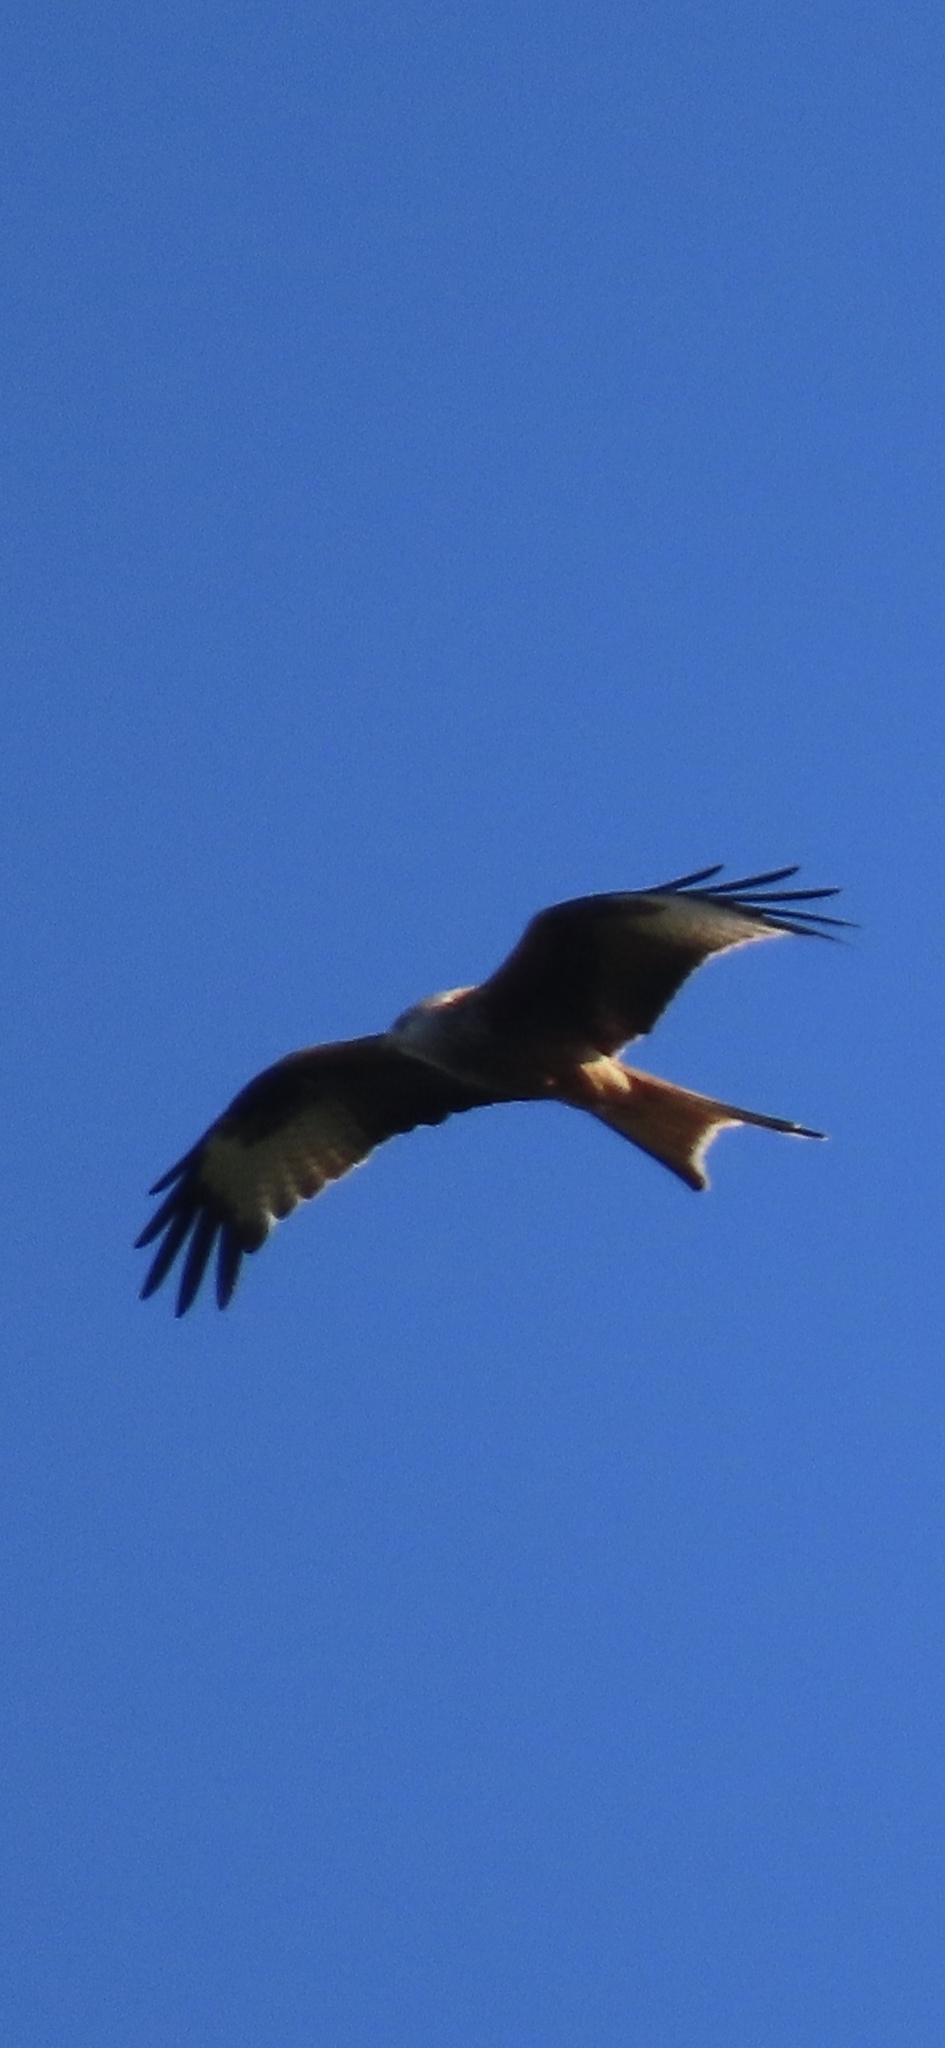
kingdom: Animalia
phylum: Chordata
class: Aves
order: Accipitriformes
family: Accipitridae
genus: Milvus
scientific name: Milvus milvus
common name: Red kite
